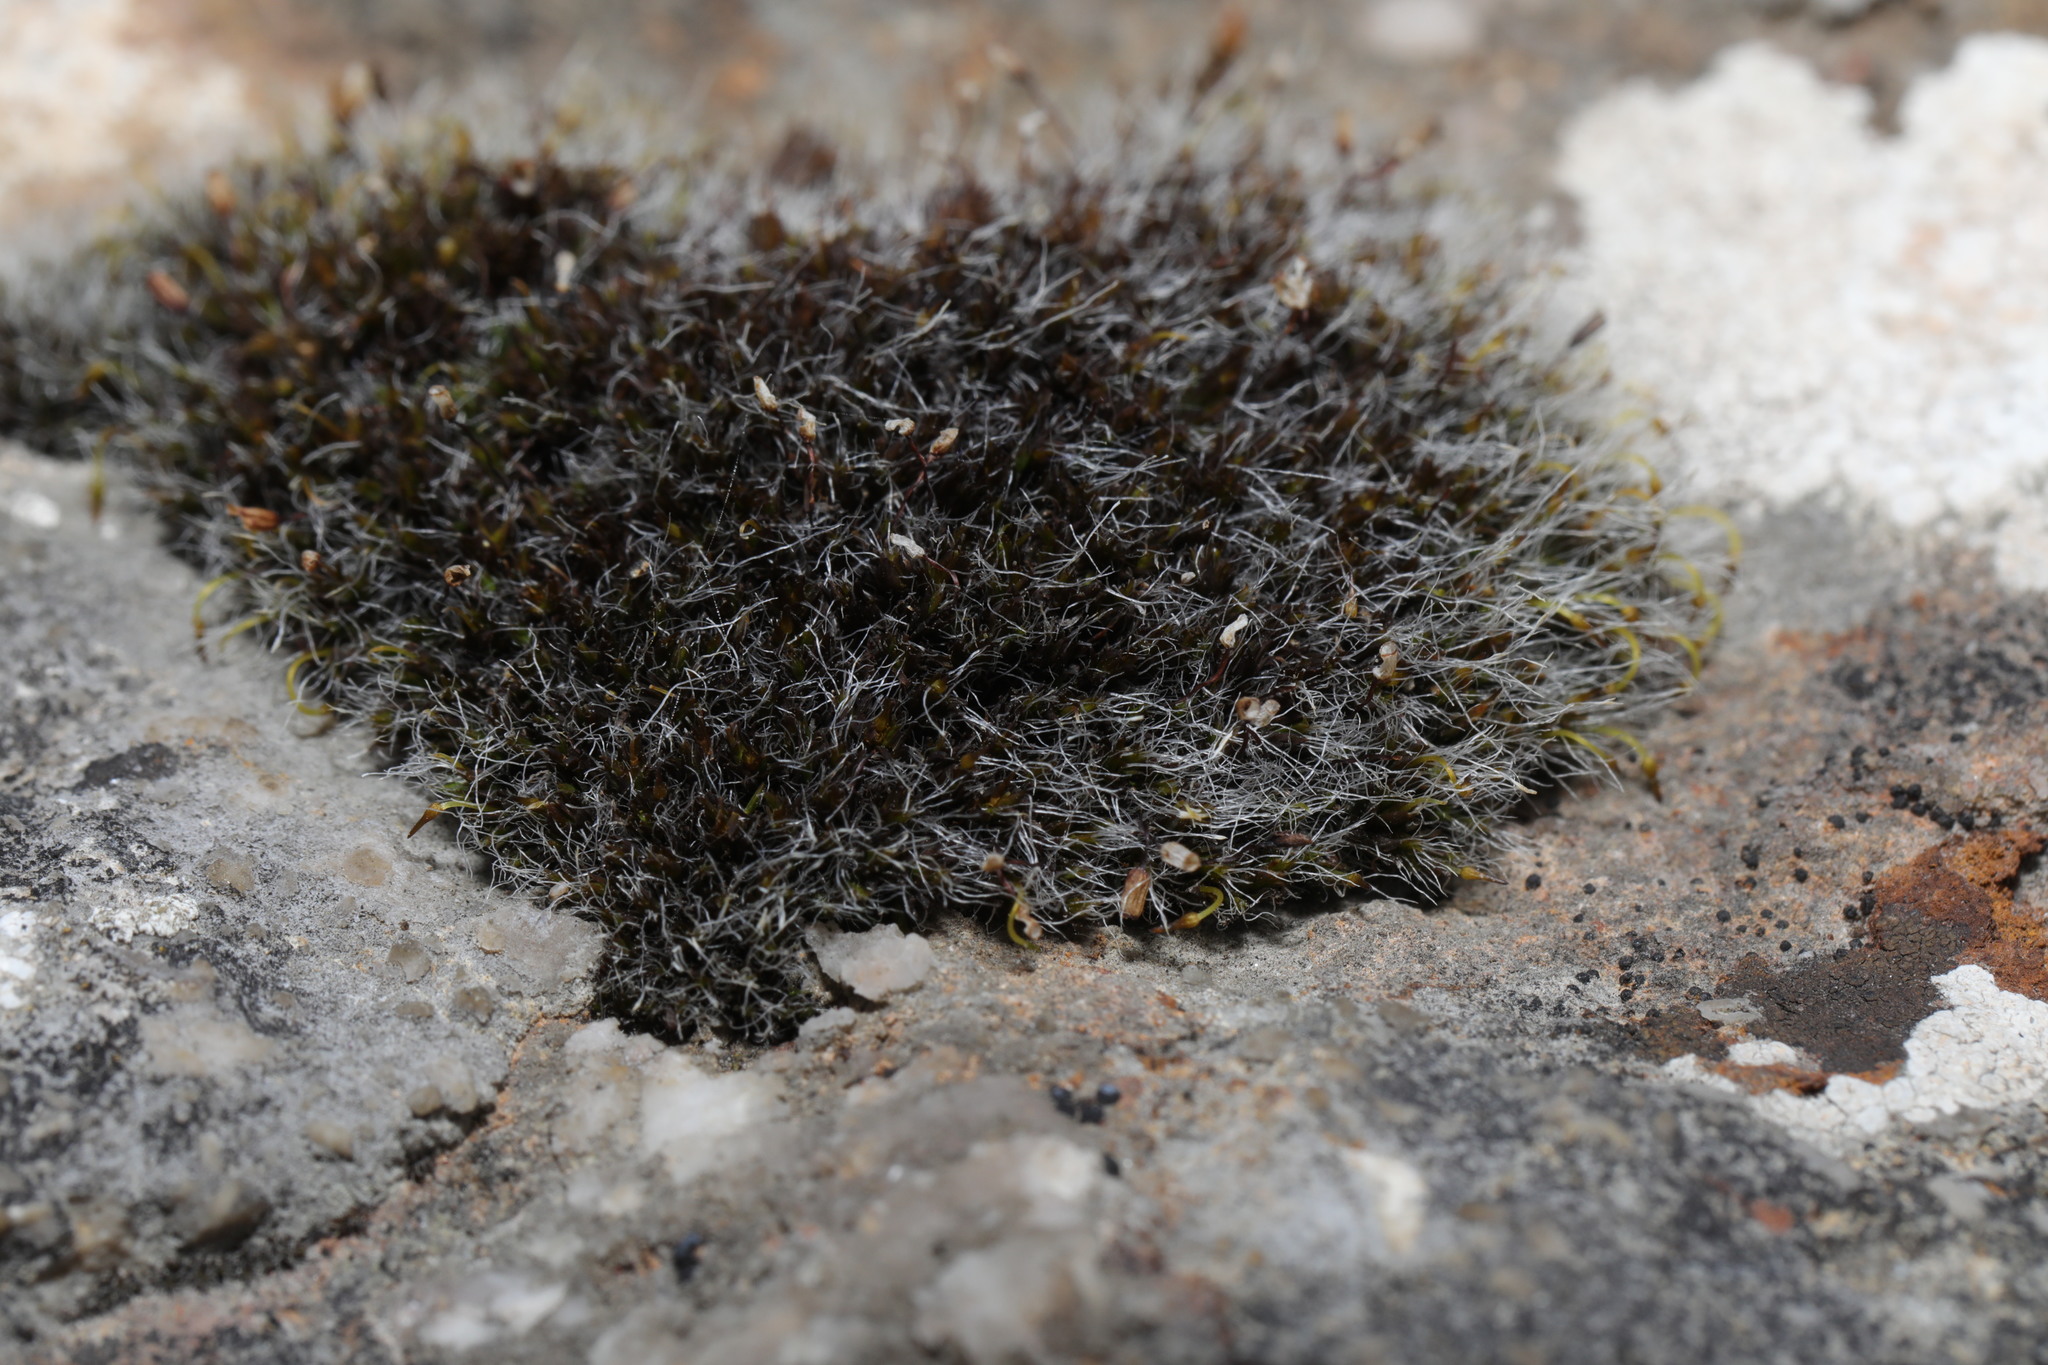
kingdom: Plantae
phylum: Bryophyta
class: Bryopsida
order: Grimmiales
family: Grimmiaceae
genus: Grimmia
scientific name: Grimmia pulvinata
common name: Grey-cushioned grimmia
